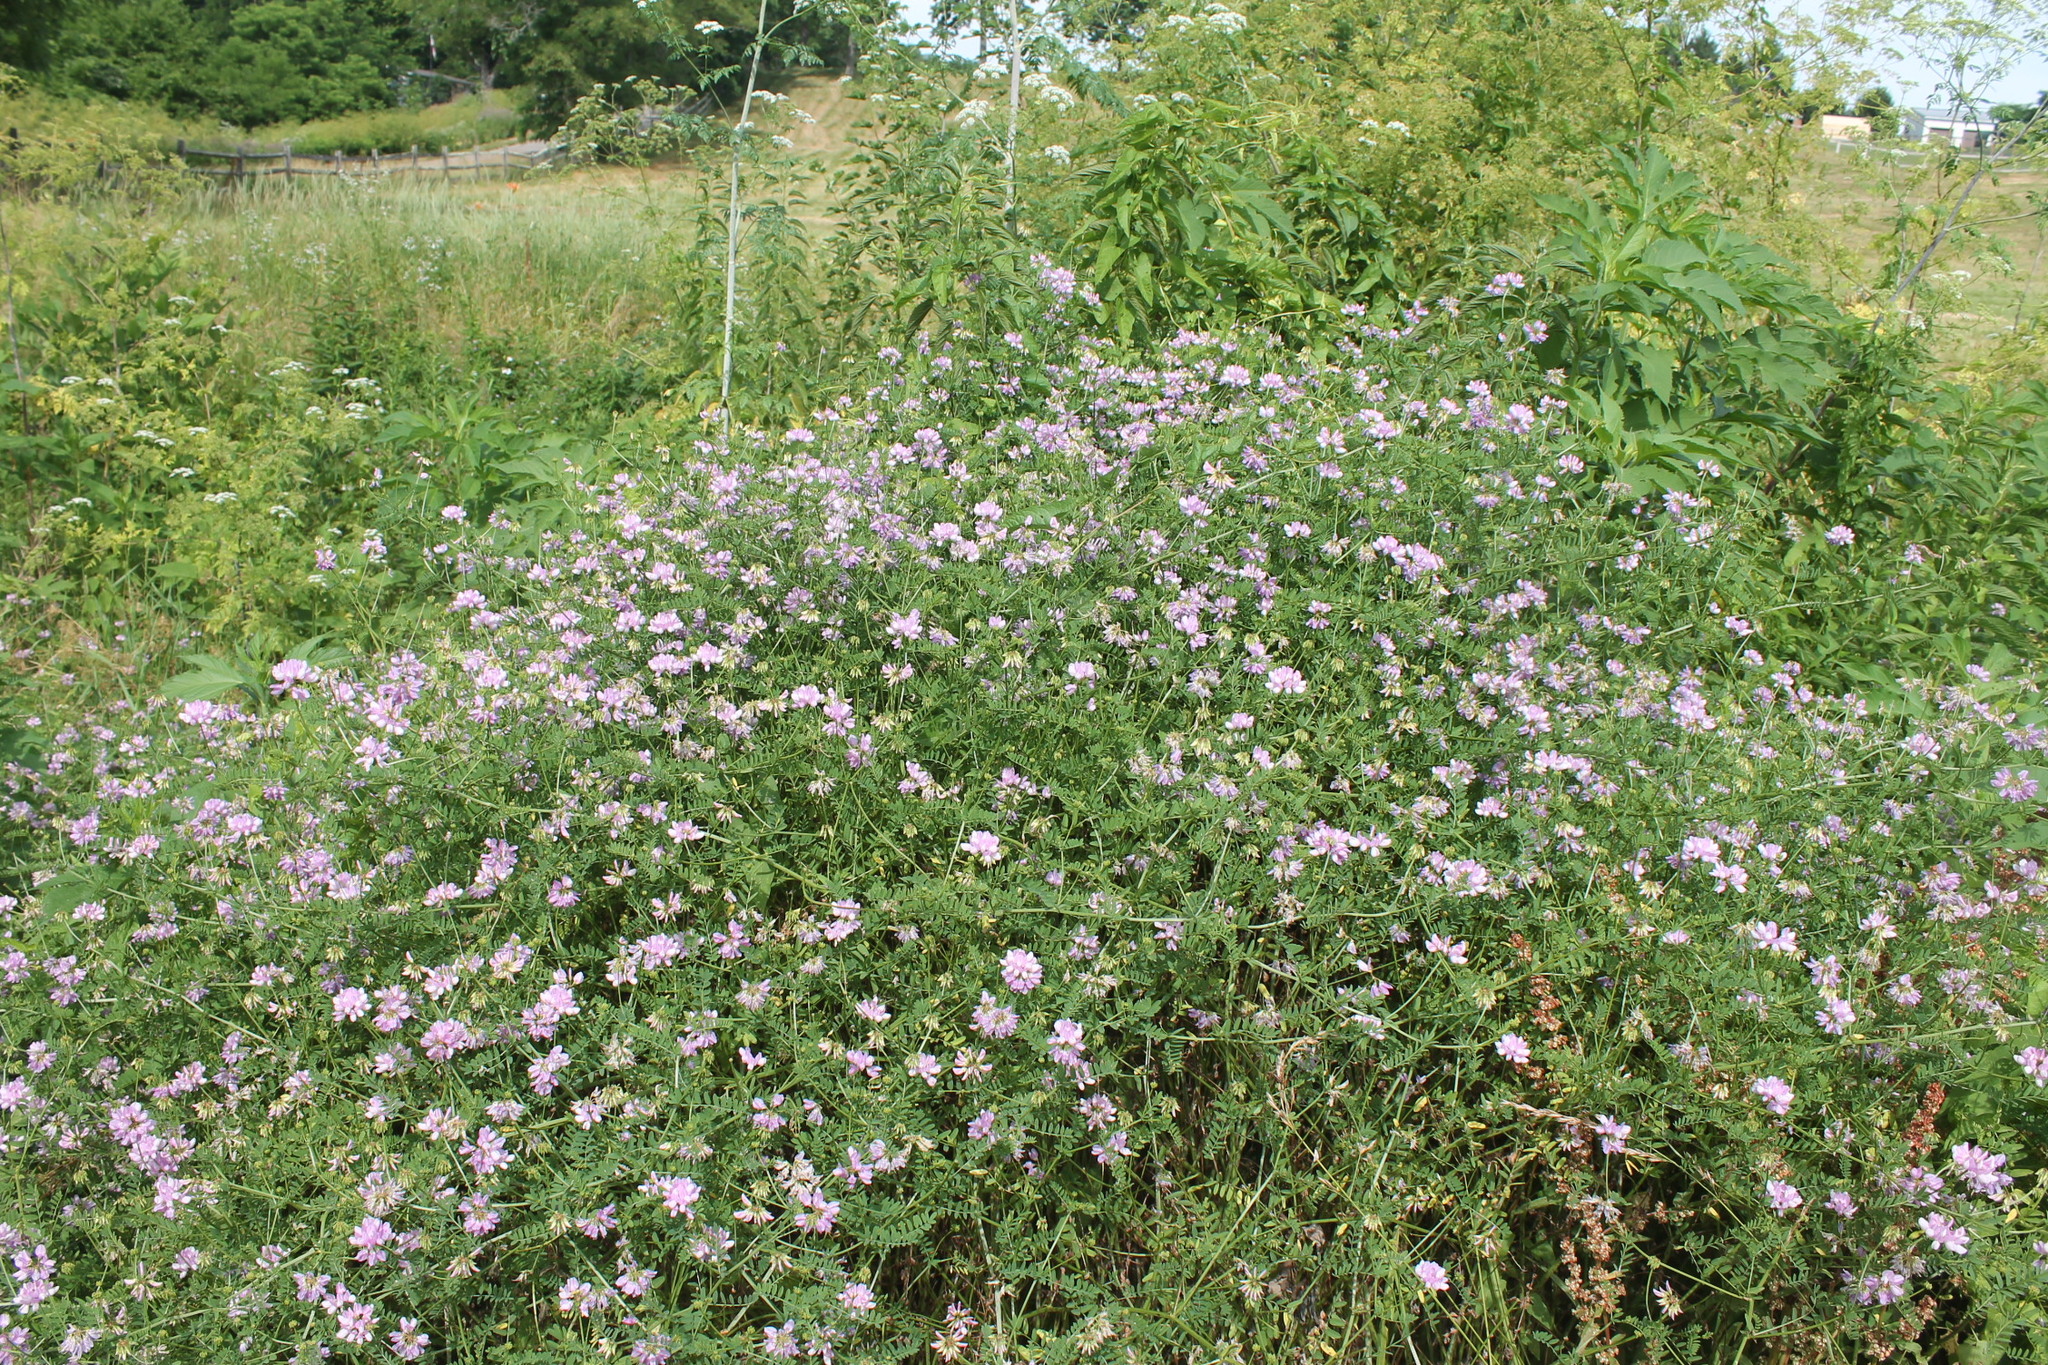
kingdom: Plantae
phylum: Tracheophyta
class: Magnoliopsida
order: Fabales
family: Fabaceae
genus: Coronilla
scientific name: Coronilla varia
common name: Crownvetch
